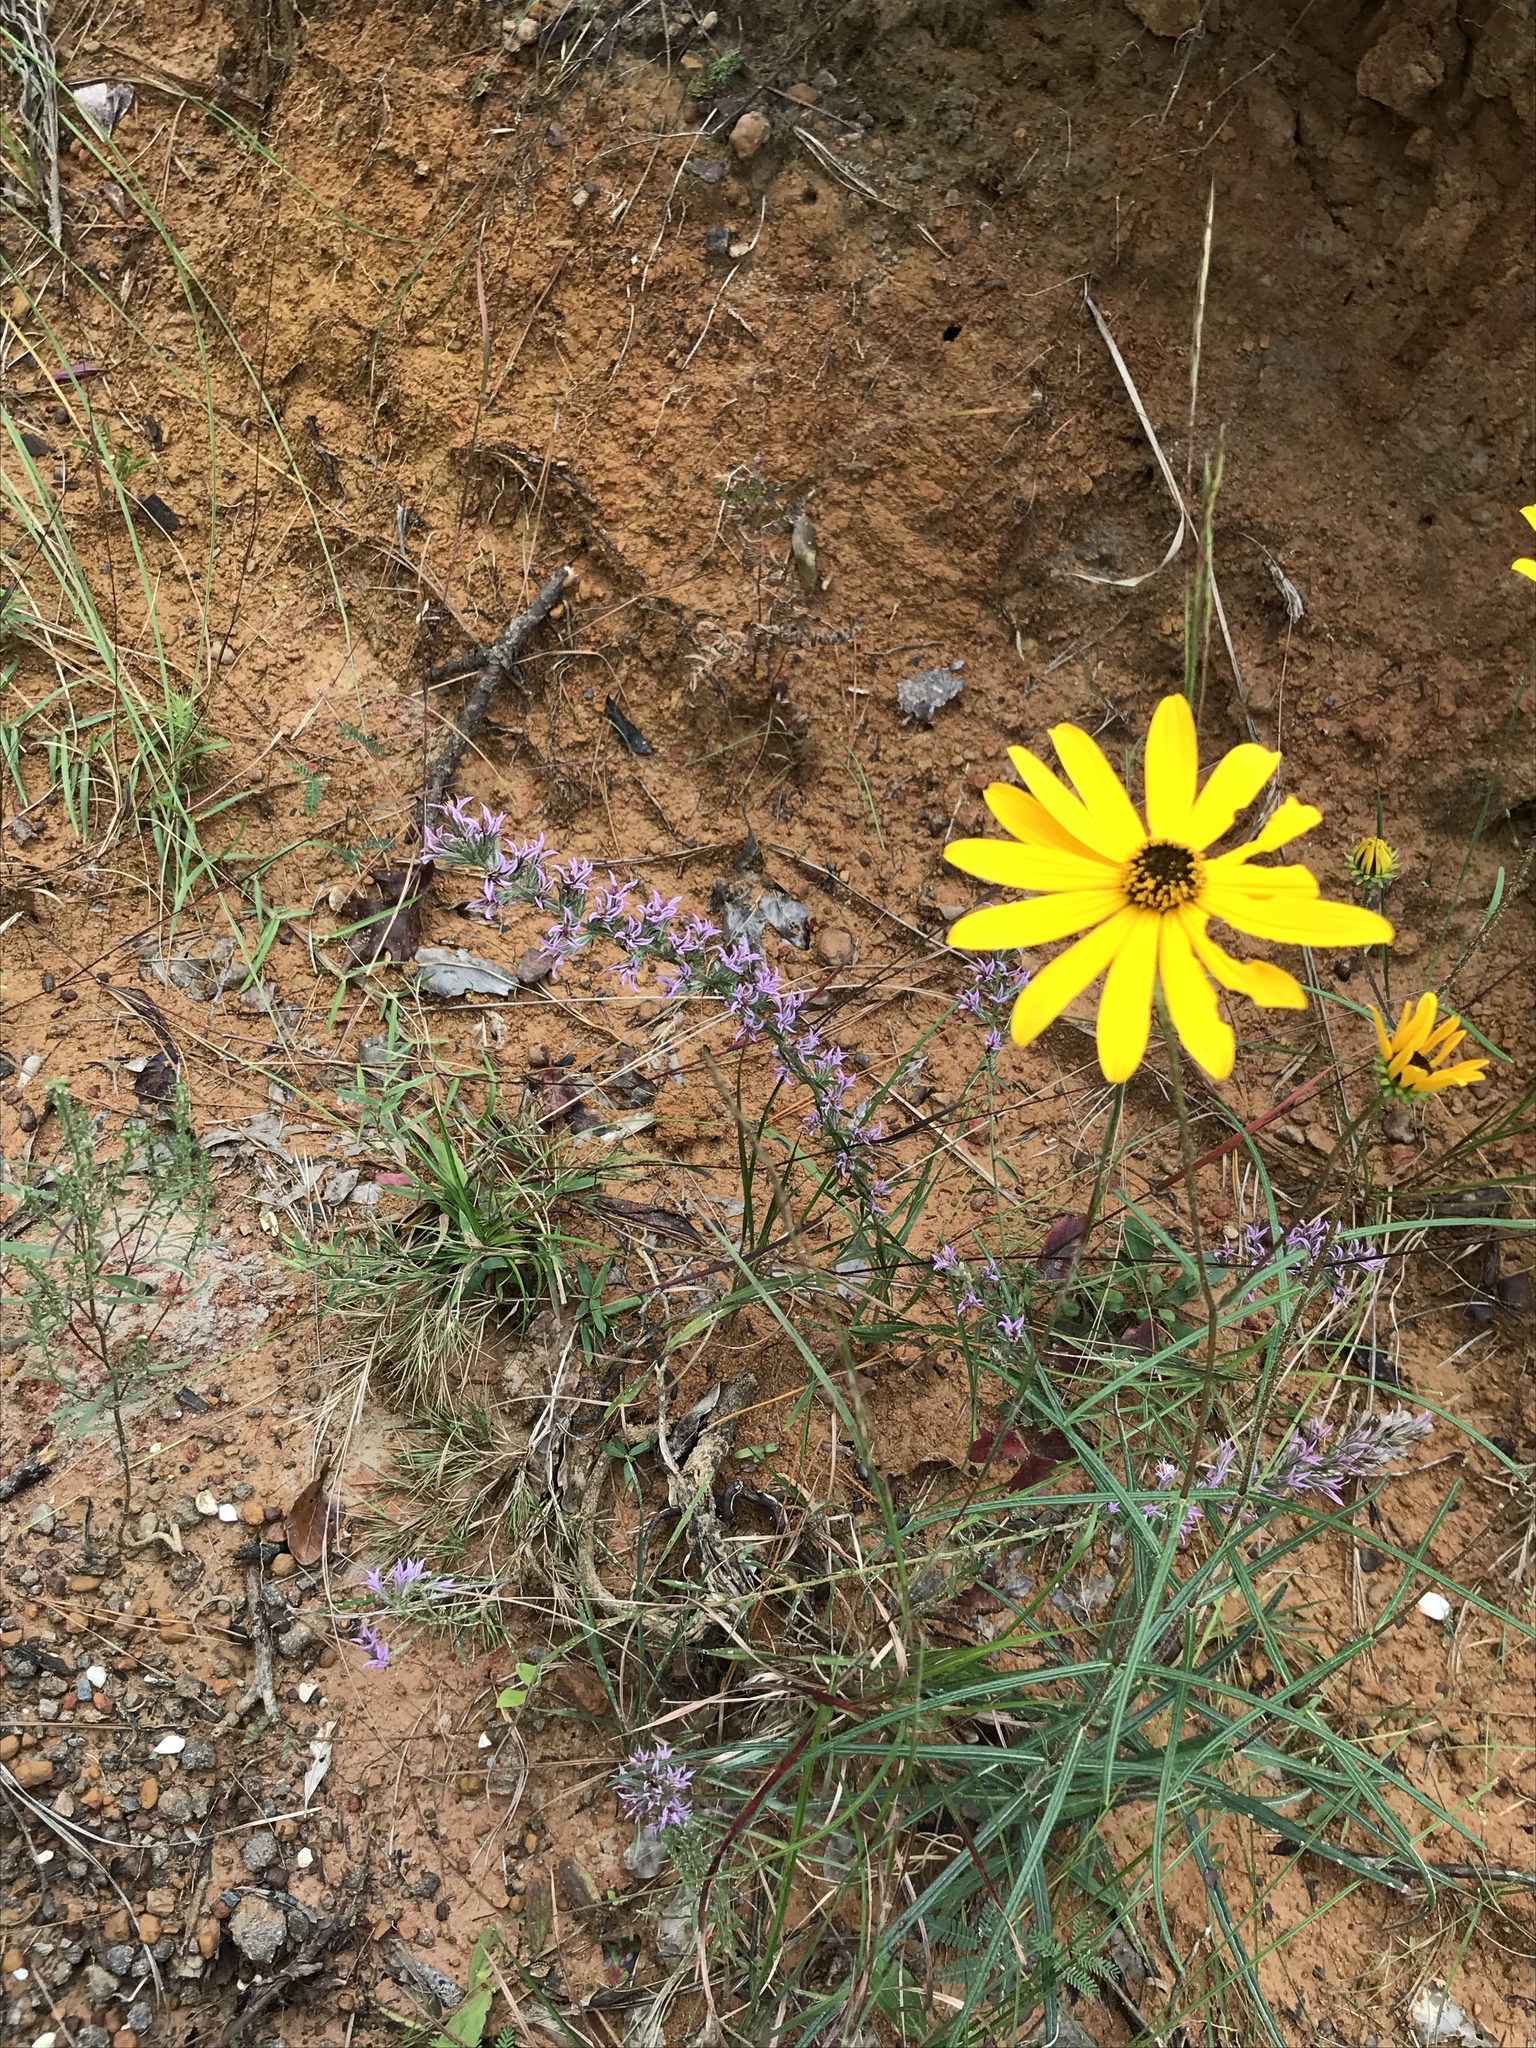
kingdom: Plantae
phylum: Tracheophyta
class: Magnoliopsida
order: Asterales
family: Asteraceae
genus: Liatris
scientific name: Liatris hesperelegans
